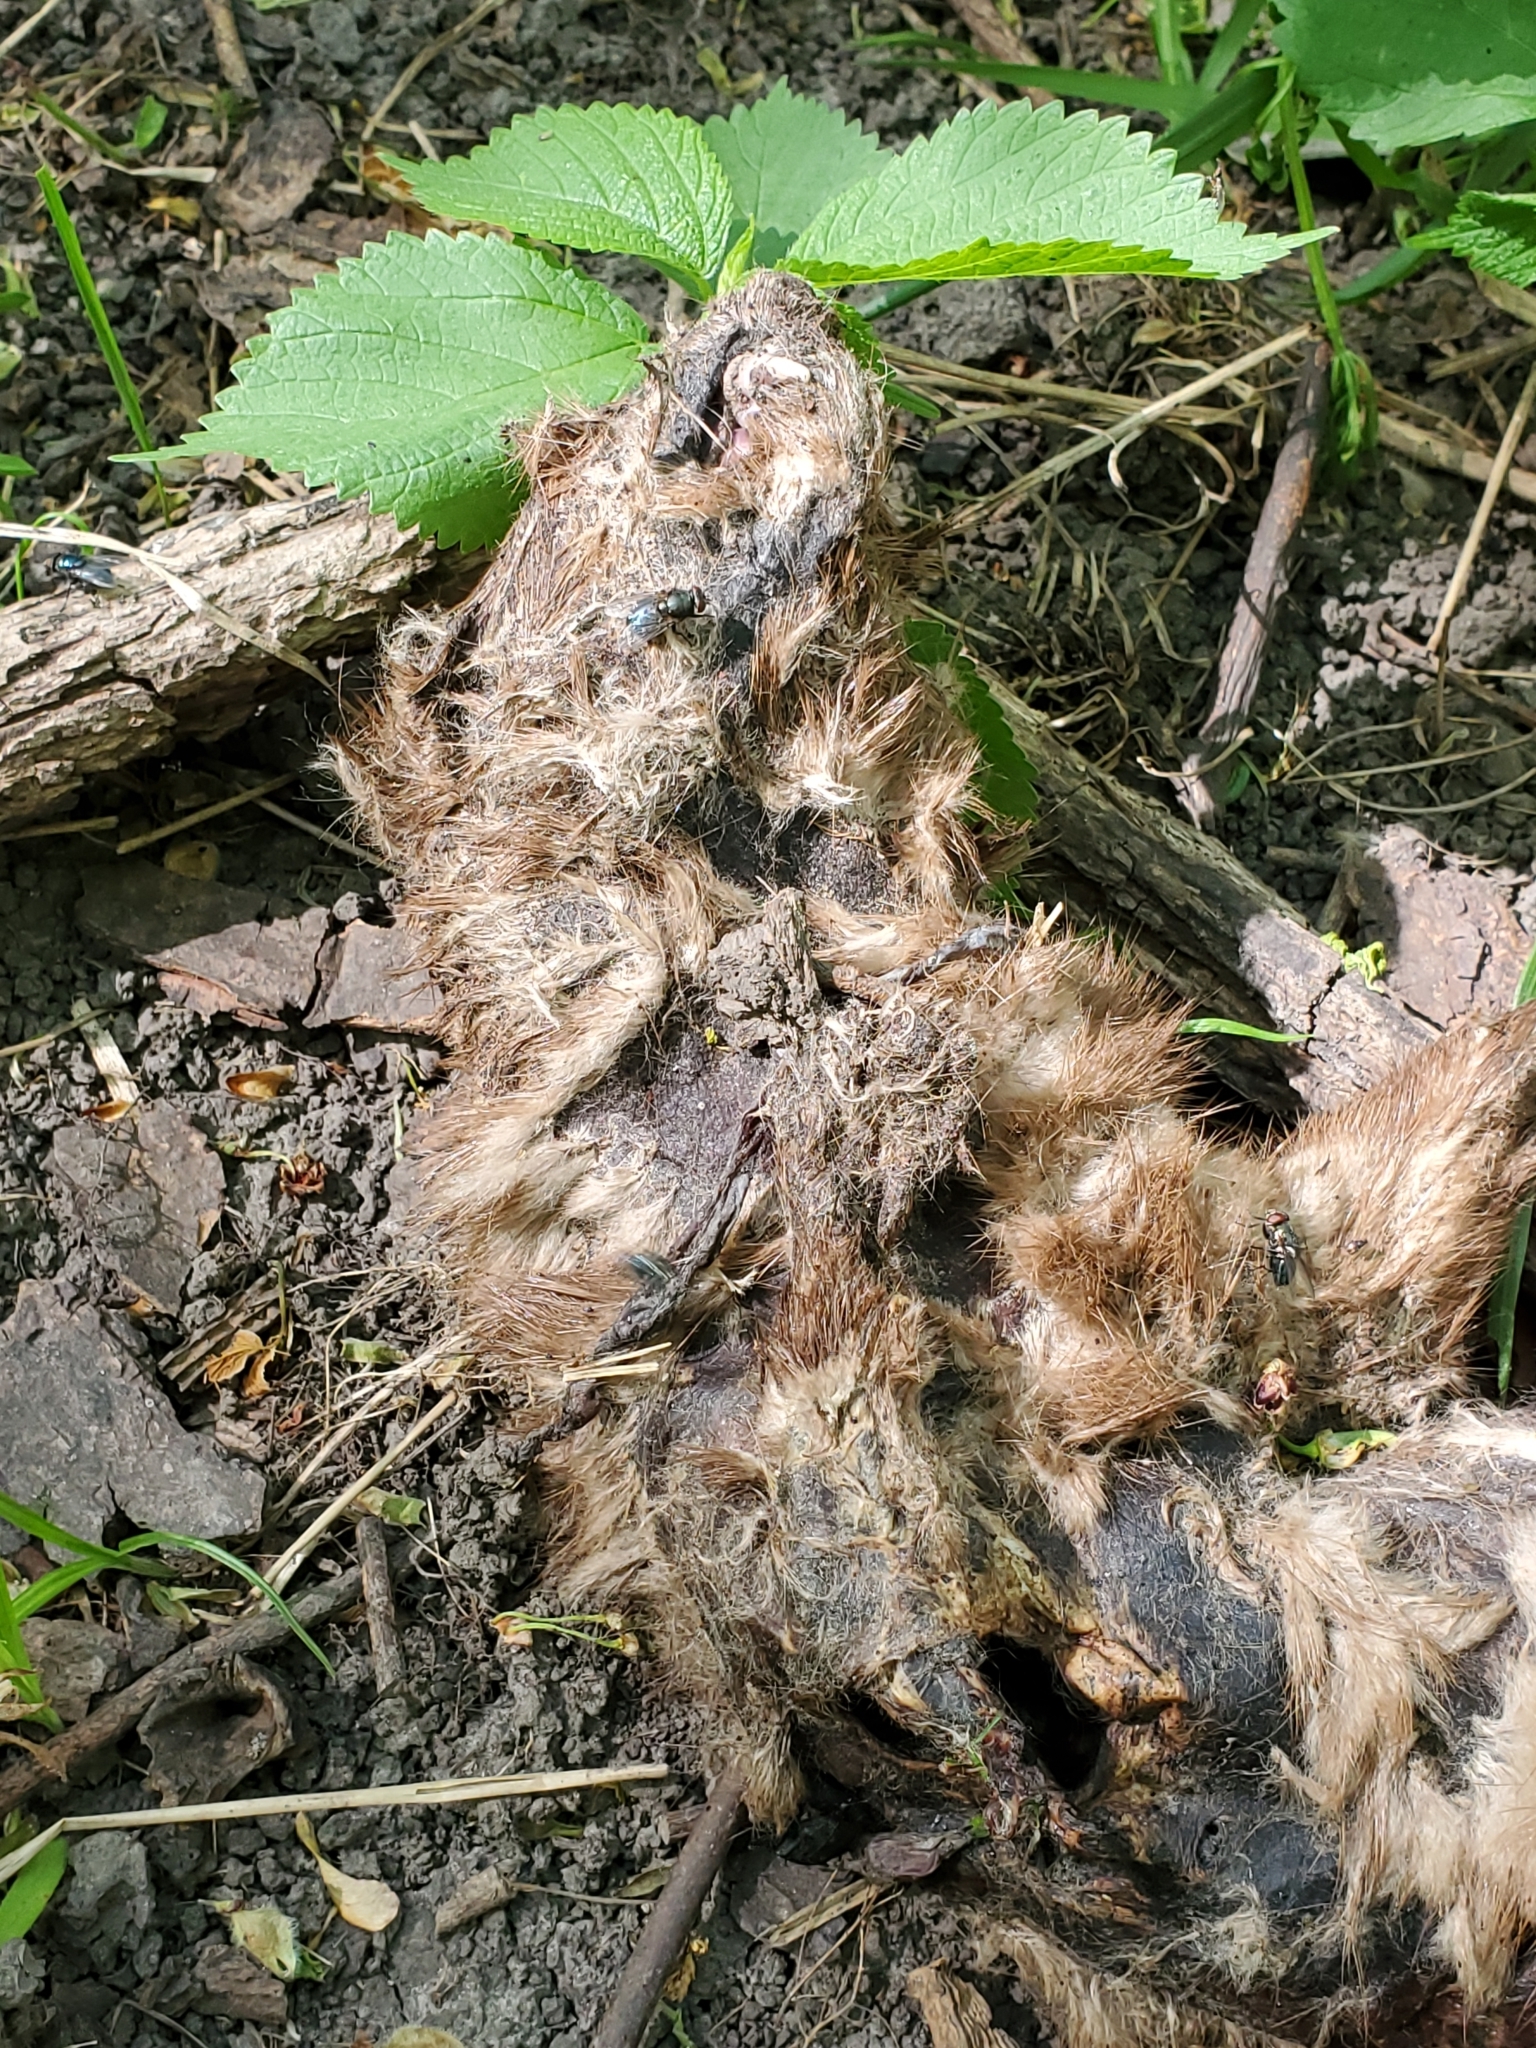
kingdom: Animalia
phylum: Chordata
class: Mammalia
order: Carnivora
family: Mustelidae
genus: Mustela
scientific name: Mustela
